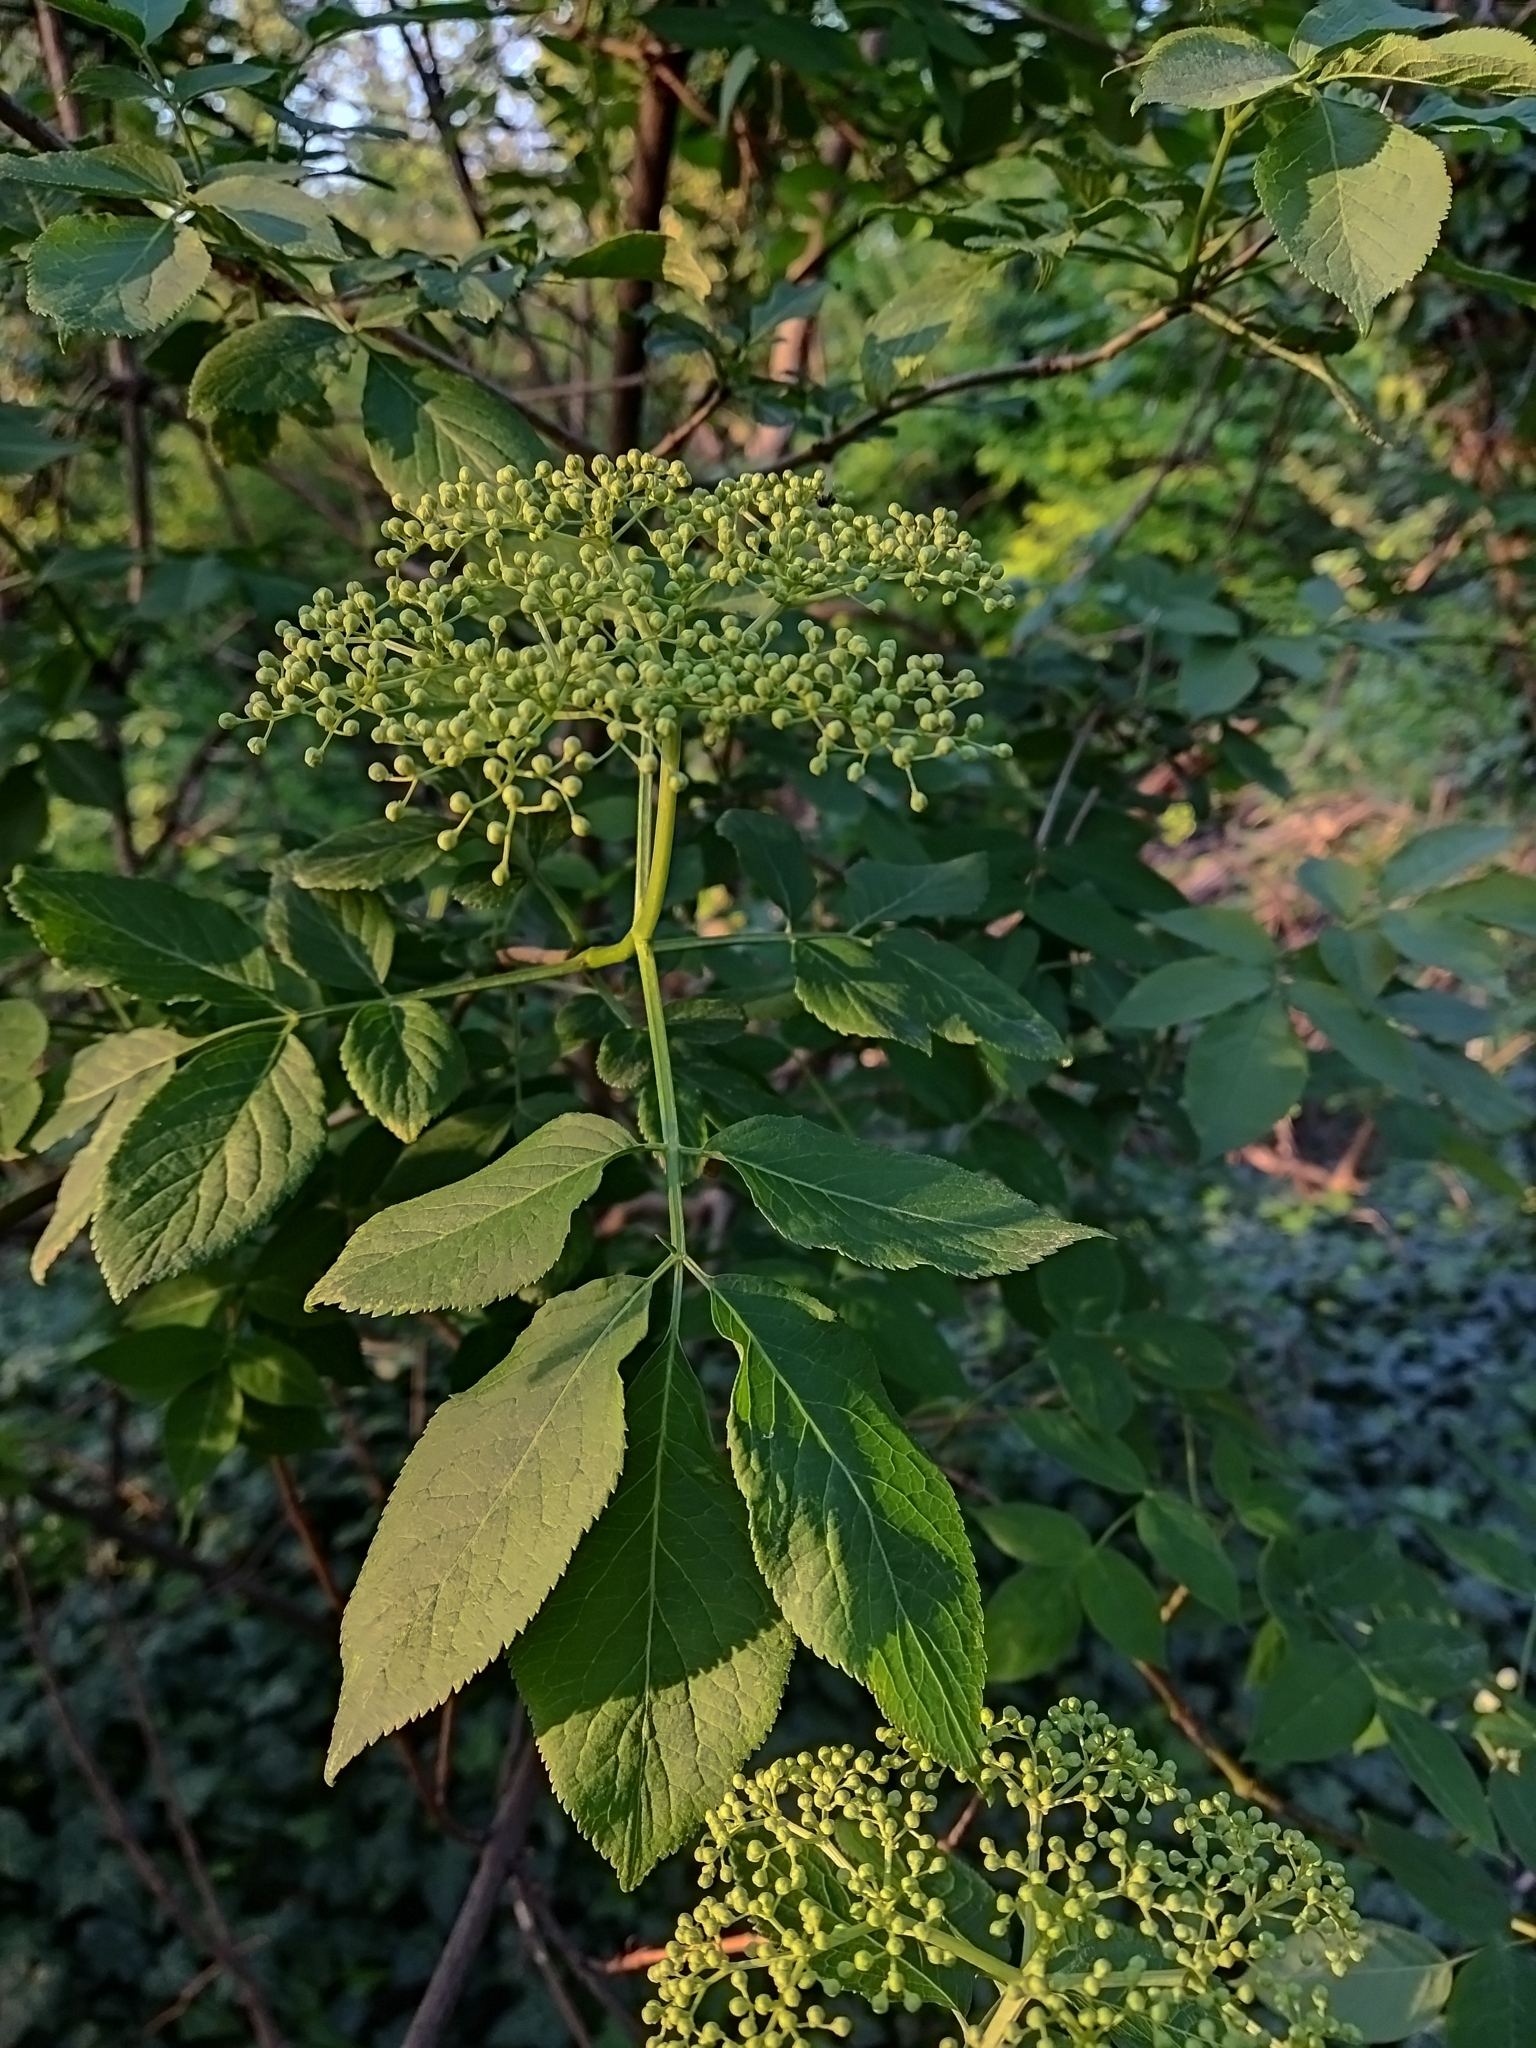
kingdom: Plantae
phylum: Tracheophyta
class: Magnoliopsida
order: Dipsacales
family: Viburnaceae
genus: Sambucus
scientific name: Sambucus nigra
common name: Elder
